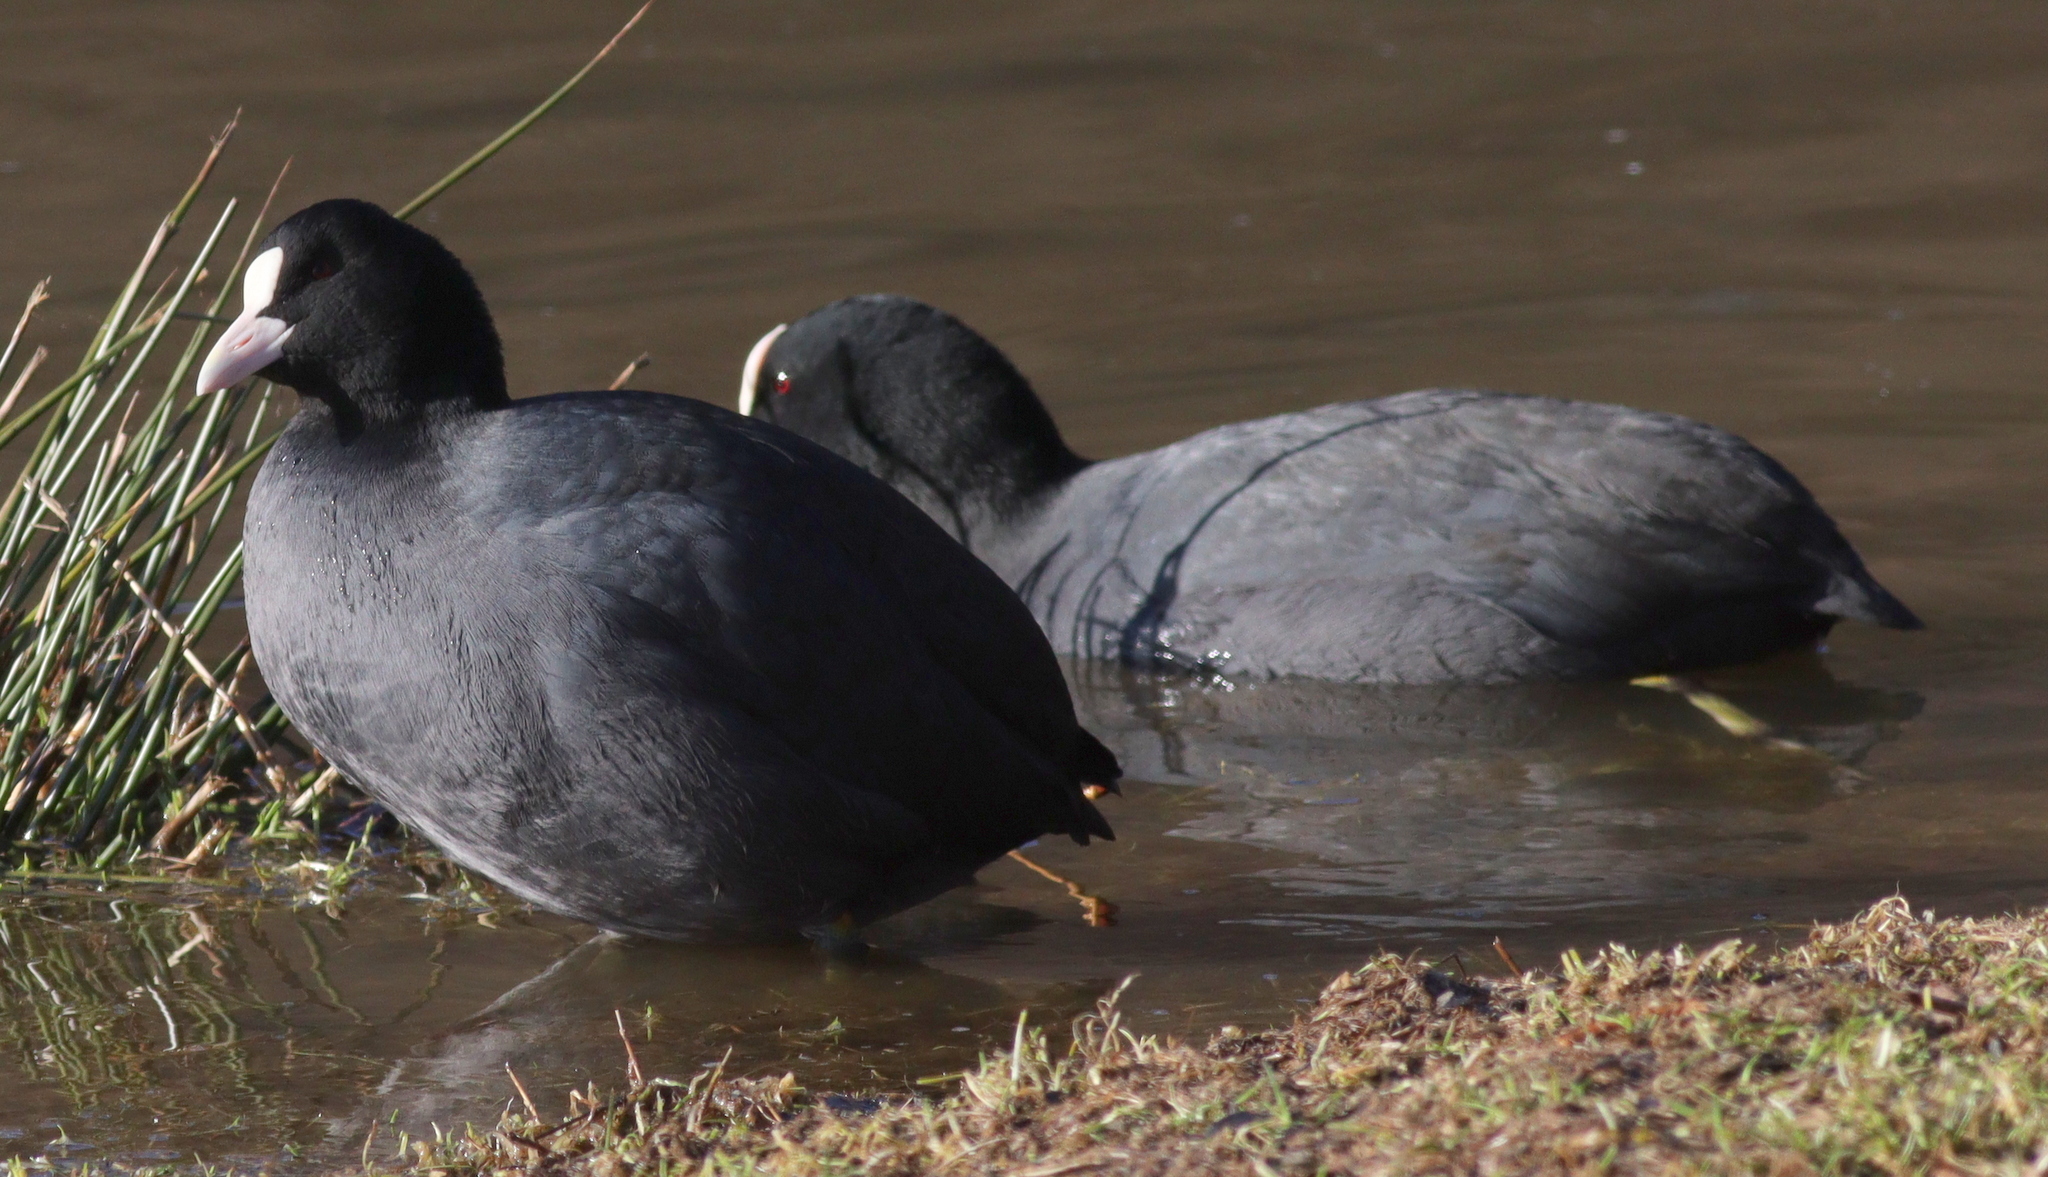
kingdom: Animalia
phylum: Chordata
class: Aves
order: Gruiformes
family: Rallidae
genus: Fulica
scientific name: Fulica atra
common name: Eurasian coot
